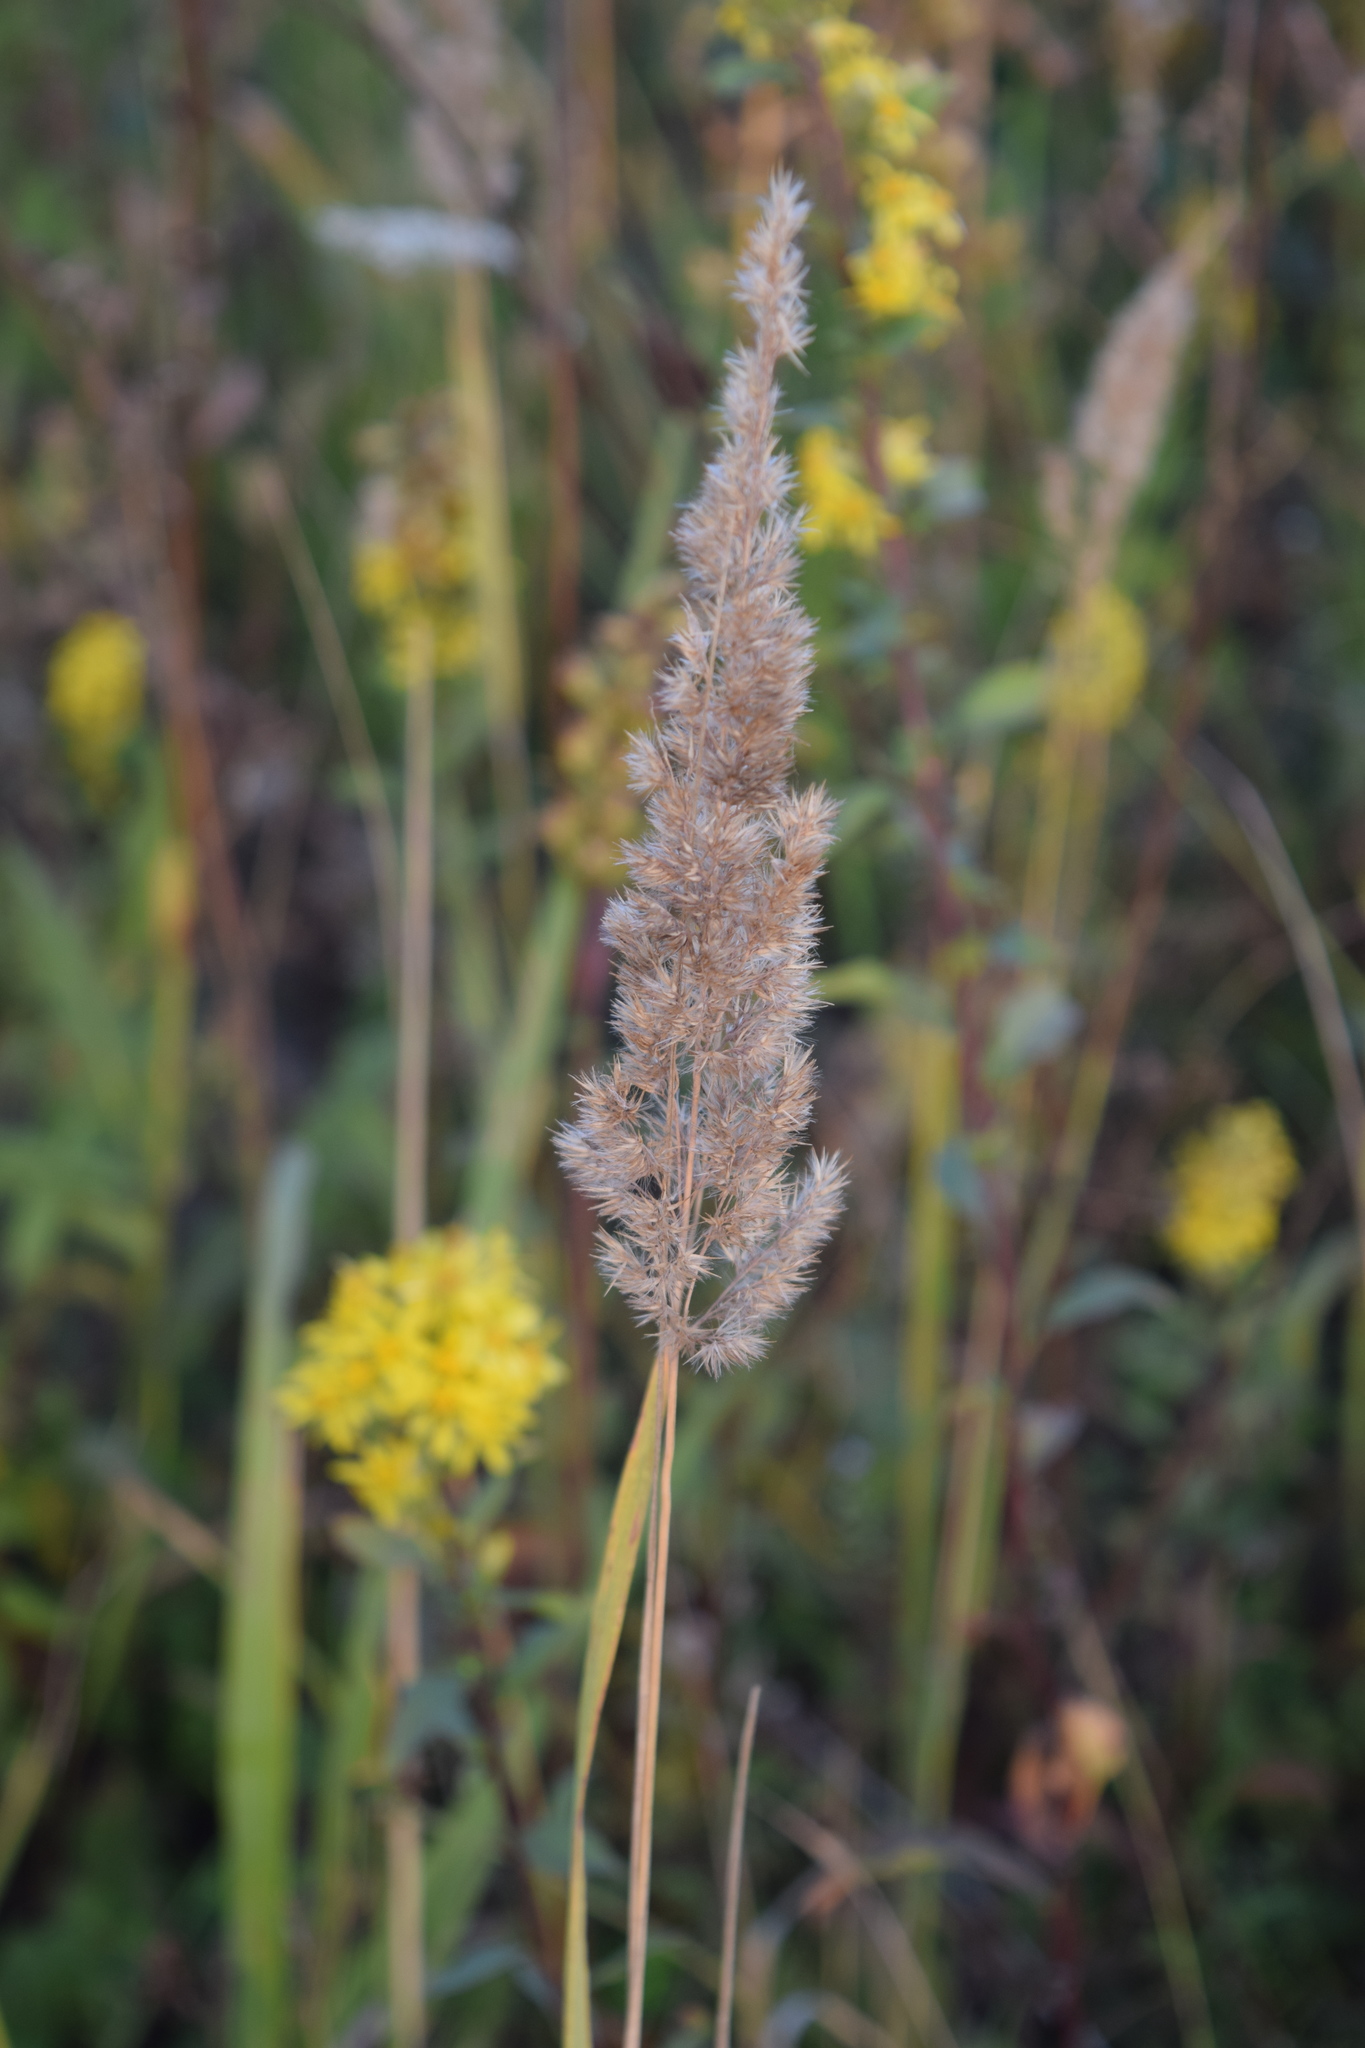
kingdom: Plantae
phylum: Tracheophyta
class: Liliopsida
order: Poales
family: Poaceae
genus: Calamagrostis
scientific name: Calamagrostis epigejos
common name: Wood small-reed
